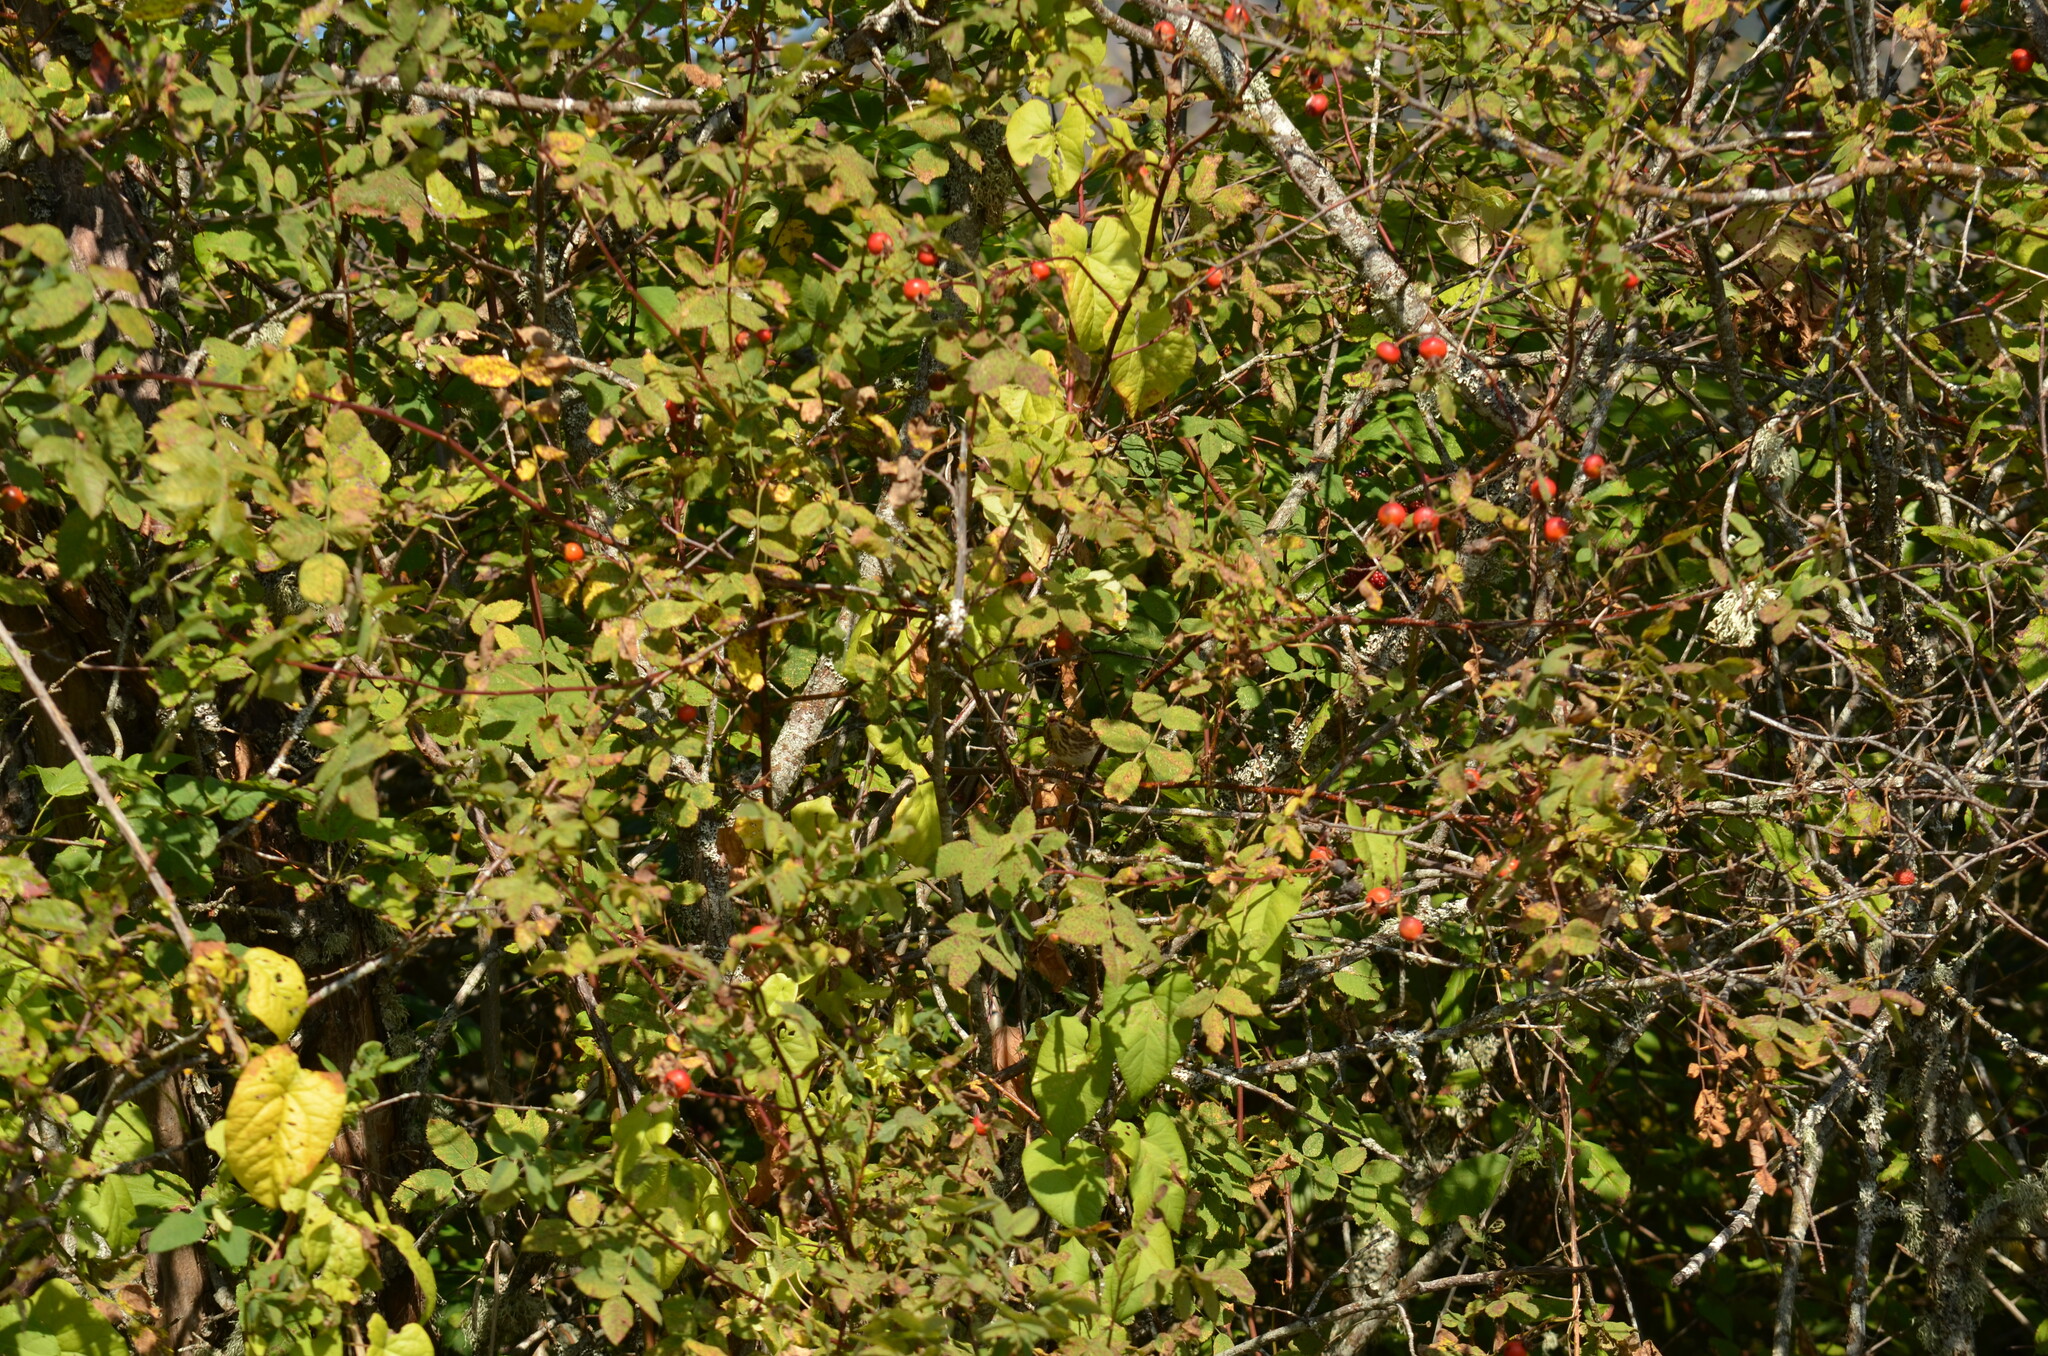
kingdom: Animalia
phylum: Chordata
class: Aves
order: Passeriformes
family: Passerellidae
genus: Passerculus
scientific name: Passerculus sandwichensis
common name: Savannah sparrow
